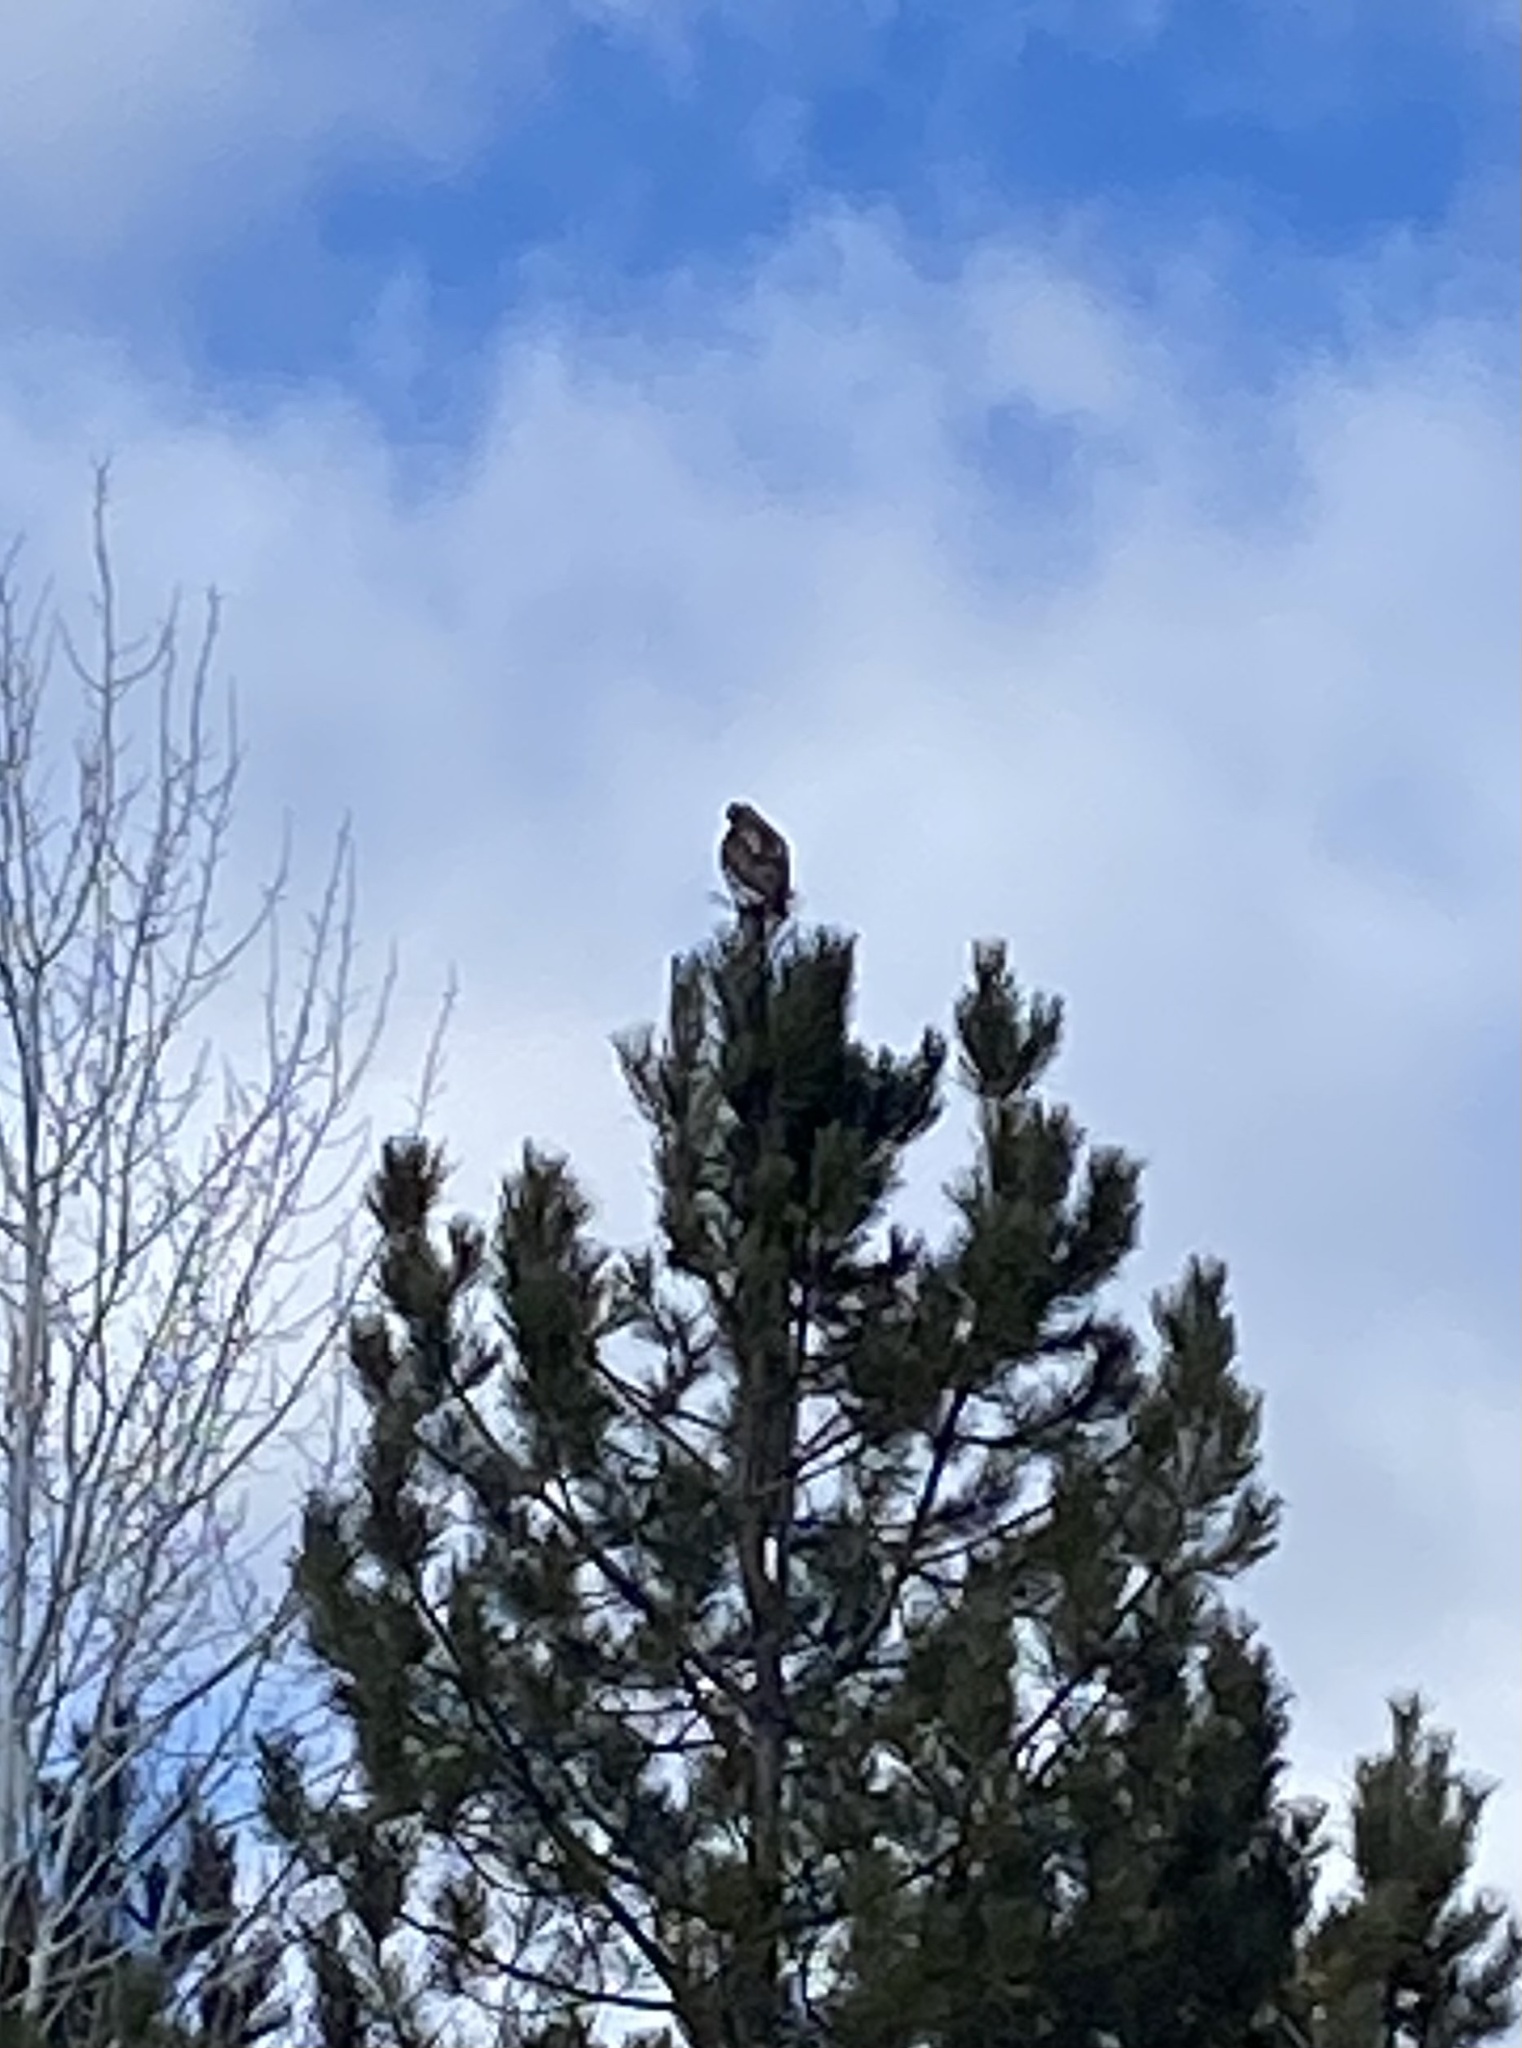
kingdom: Animalia
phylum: Chordata
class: Aves
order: Accipitriformes
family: Accipitridae
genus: Buteo
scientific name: Buteo jamaicensis
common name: Red-tailed hawk
